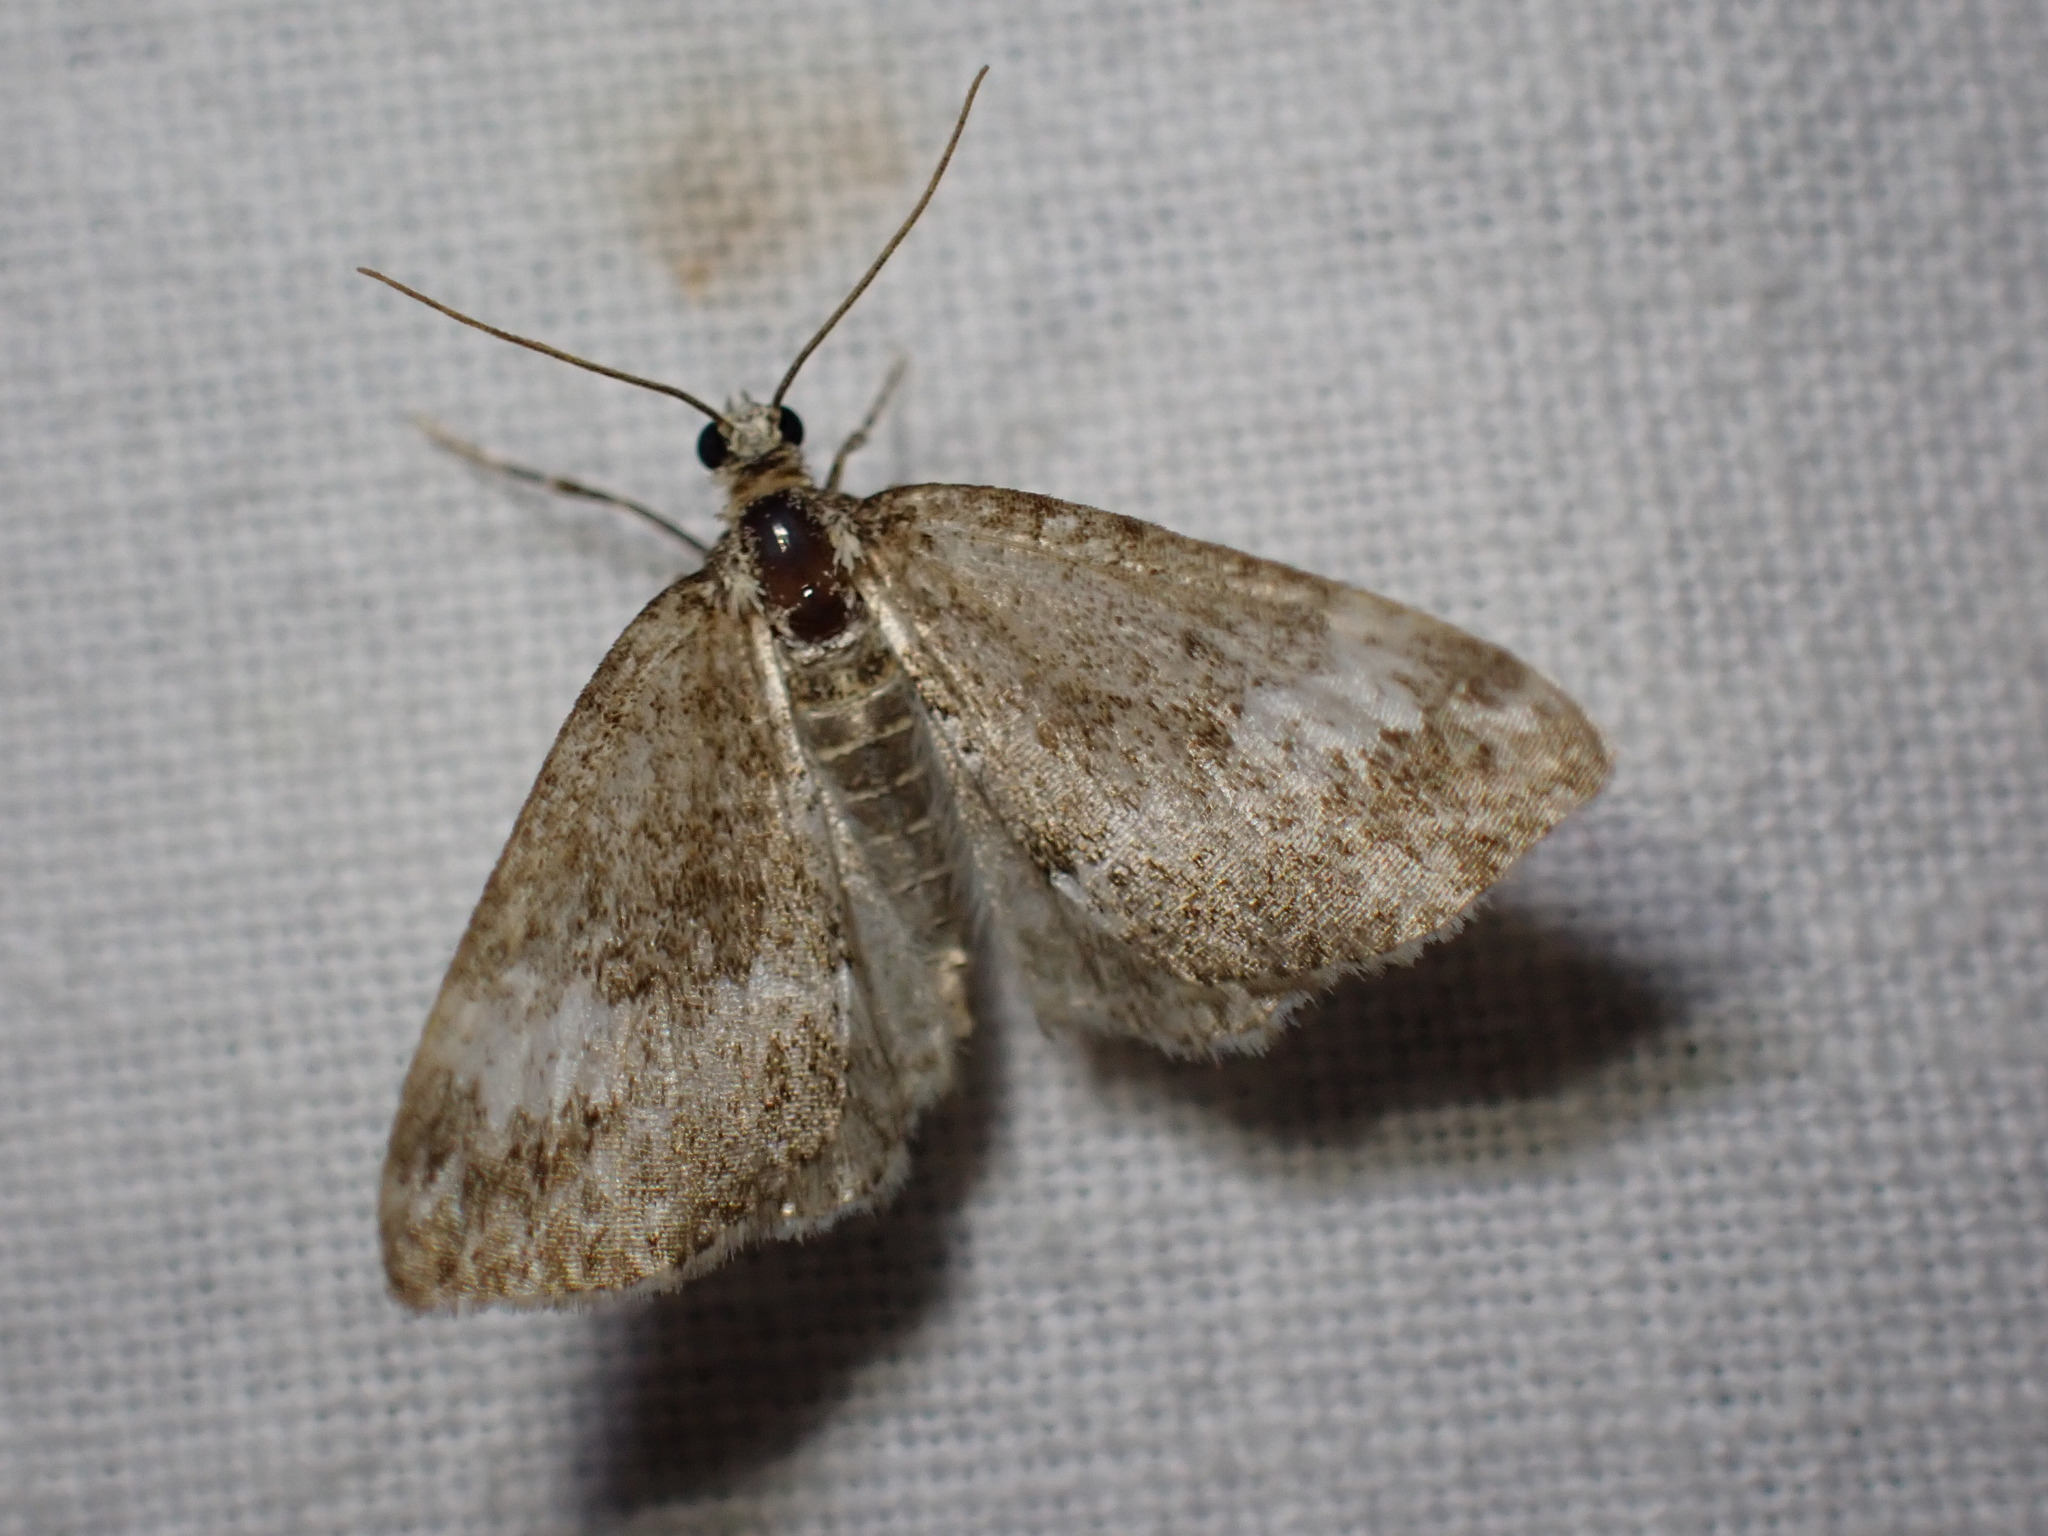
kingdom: Animalia
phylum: Arthropoda
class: Insecta
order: Lepidoptera
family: Geometridae
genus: Perizoma
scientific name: Perizoma alchemillata
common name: Small rivulet
